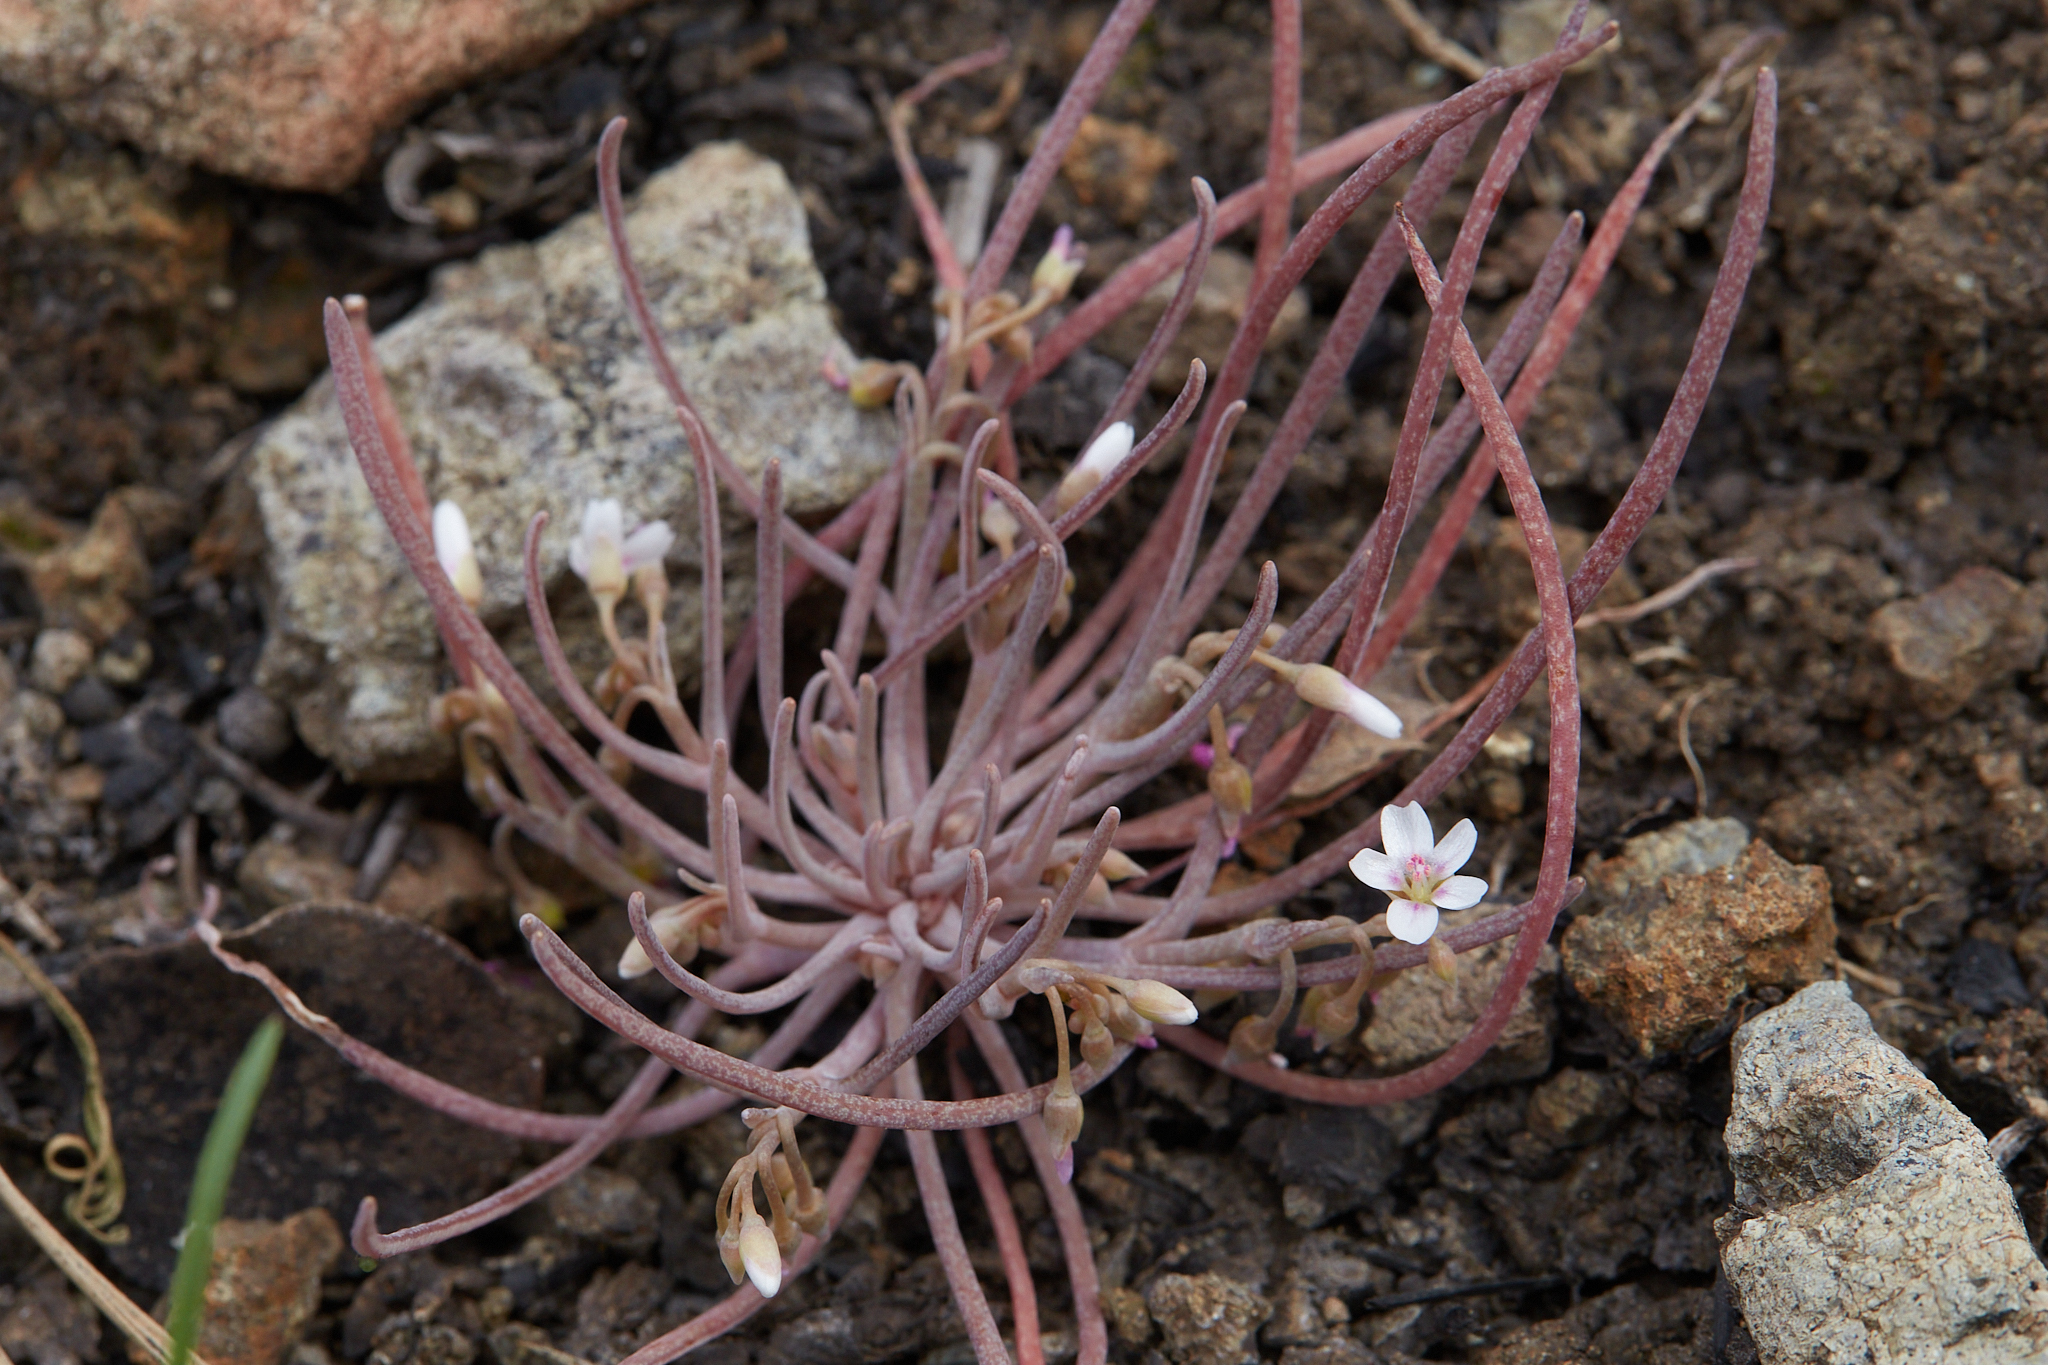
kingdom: Plantae
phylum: Tracheophyta
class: Magnoliopsida
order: Caryophyllales
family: Montiaceae
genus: Claytonia
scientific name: Claytonia exigua
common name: Pale spring beauty
